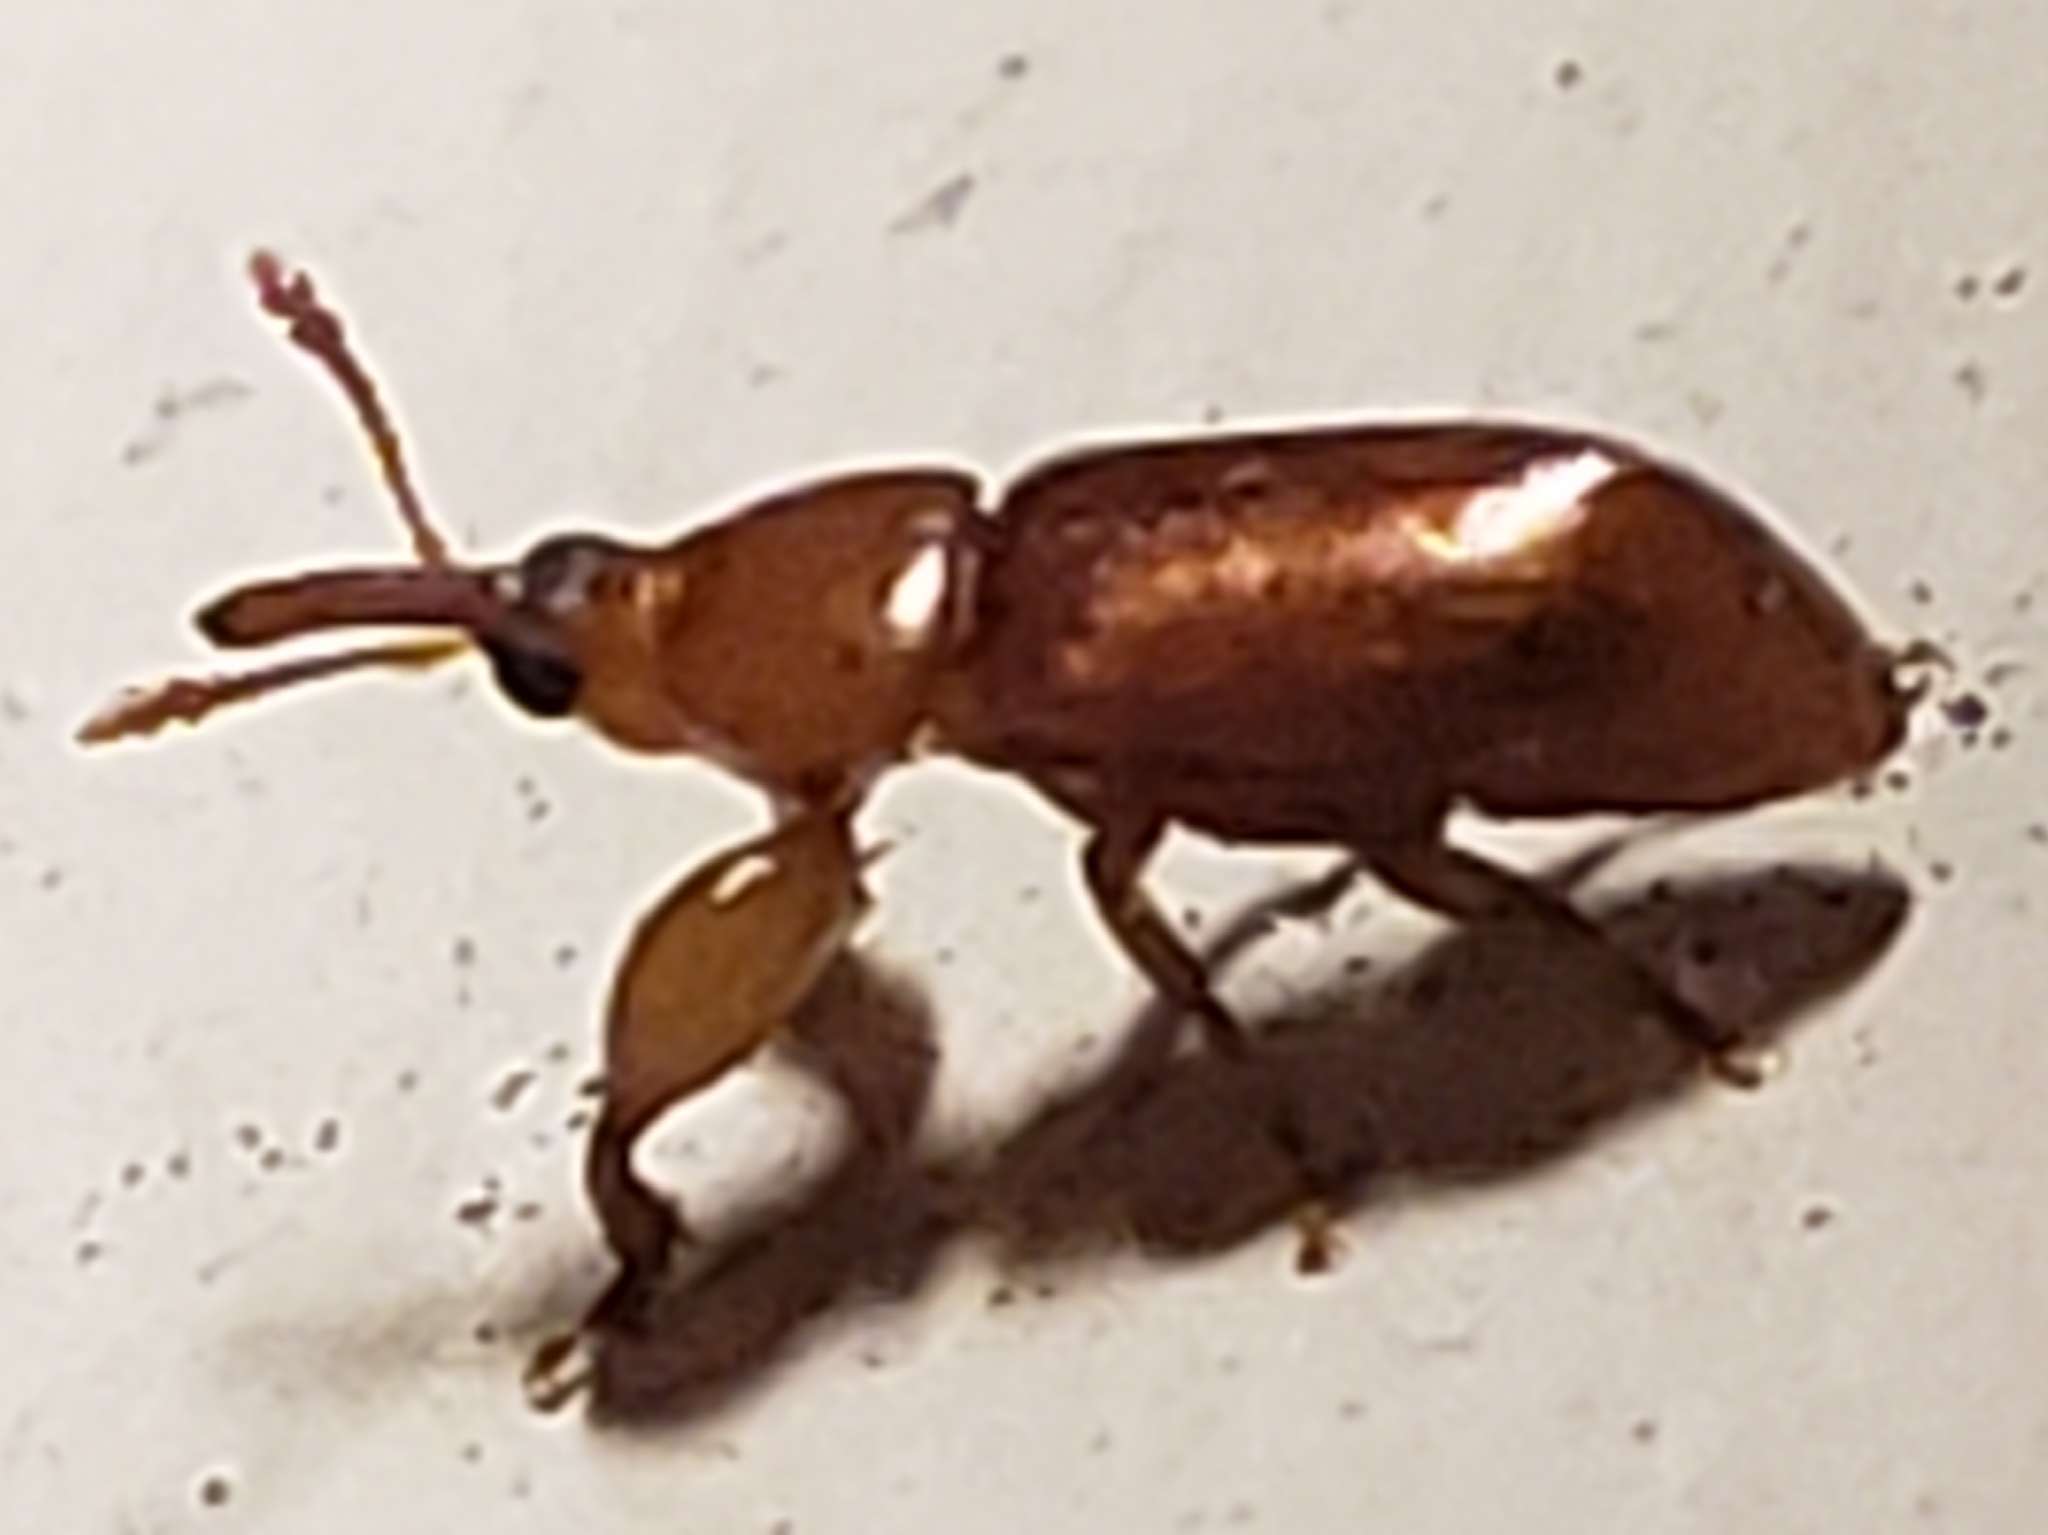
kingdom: Animalia
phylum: Arthropoda
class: Insecta
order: Coleoptera
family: Belidae
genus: Rhopalotria
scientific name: Rhopalotria furfuracea
